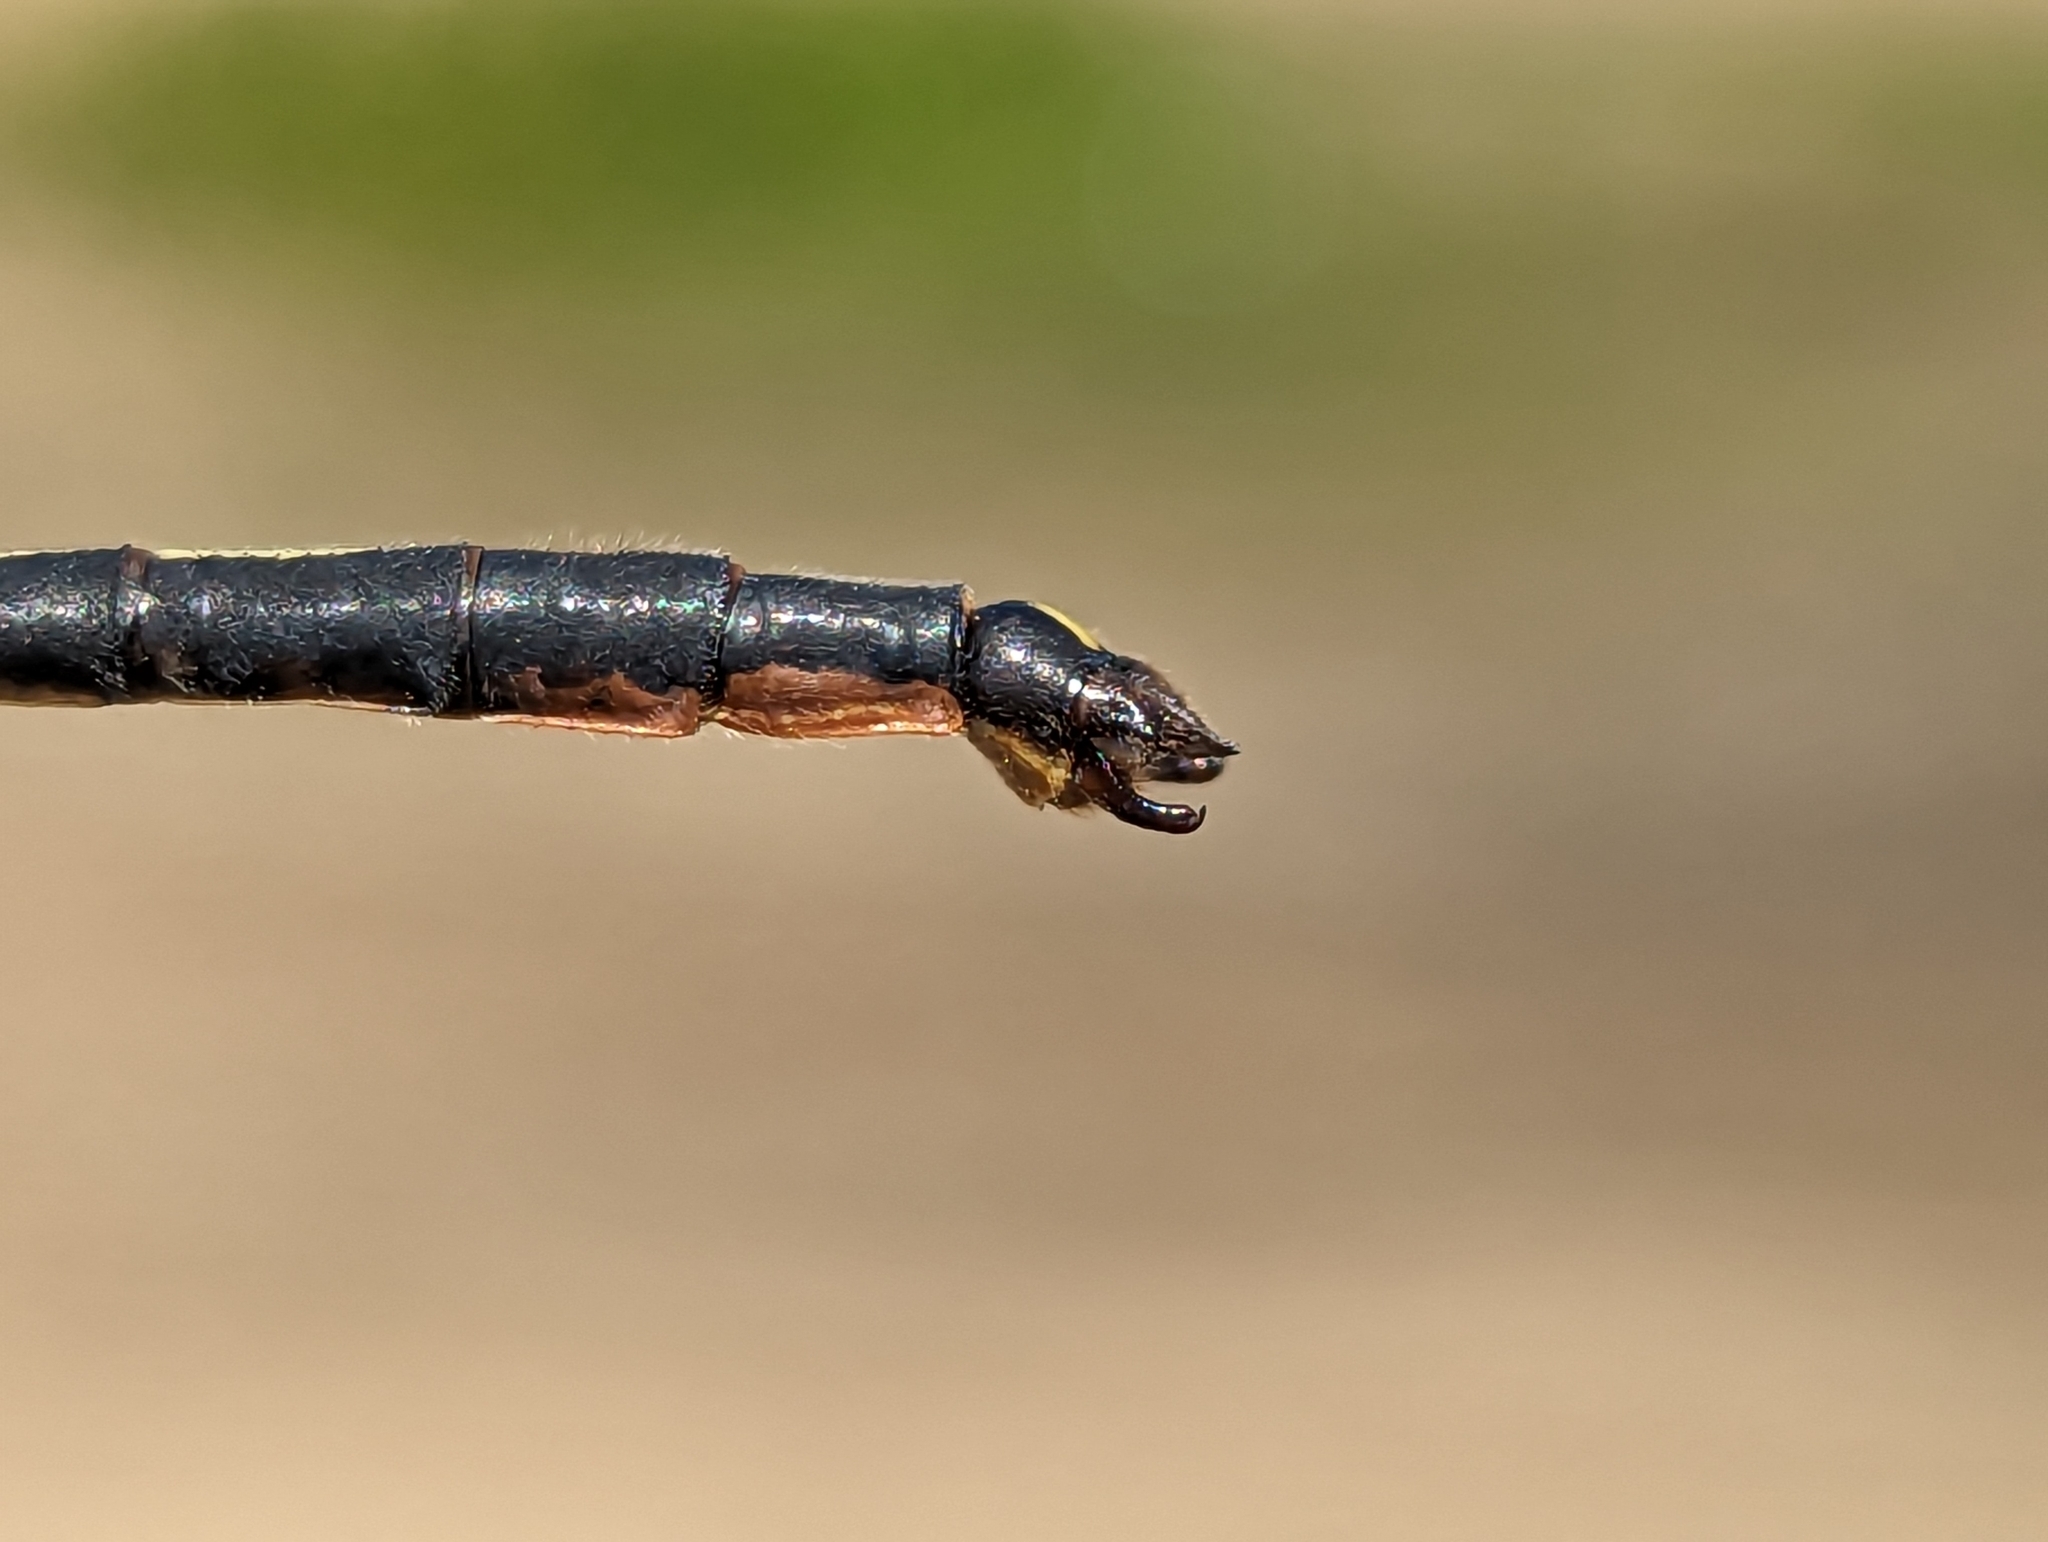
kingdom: Animalia
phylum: Arthropoda
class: Insecta
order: Odonata
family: Gomphidae
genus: Arigomphus
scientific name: Arigomphus cornutus
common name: Horned clubtail
